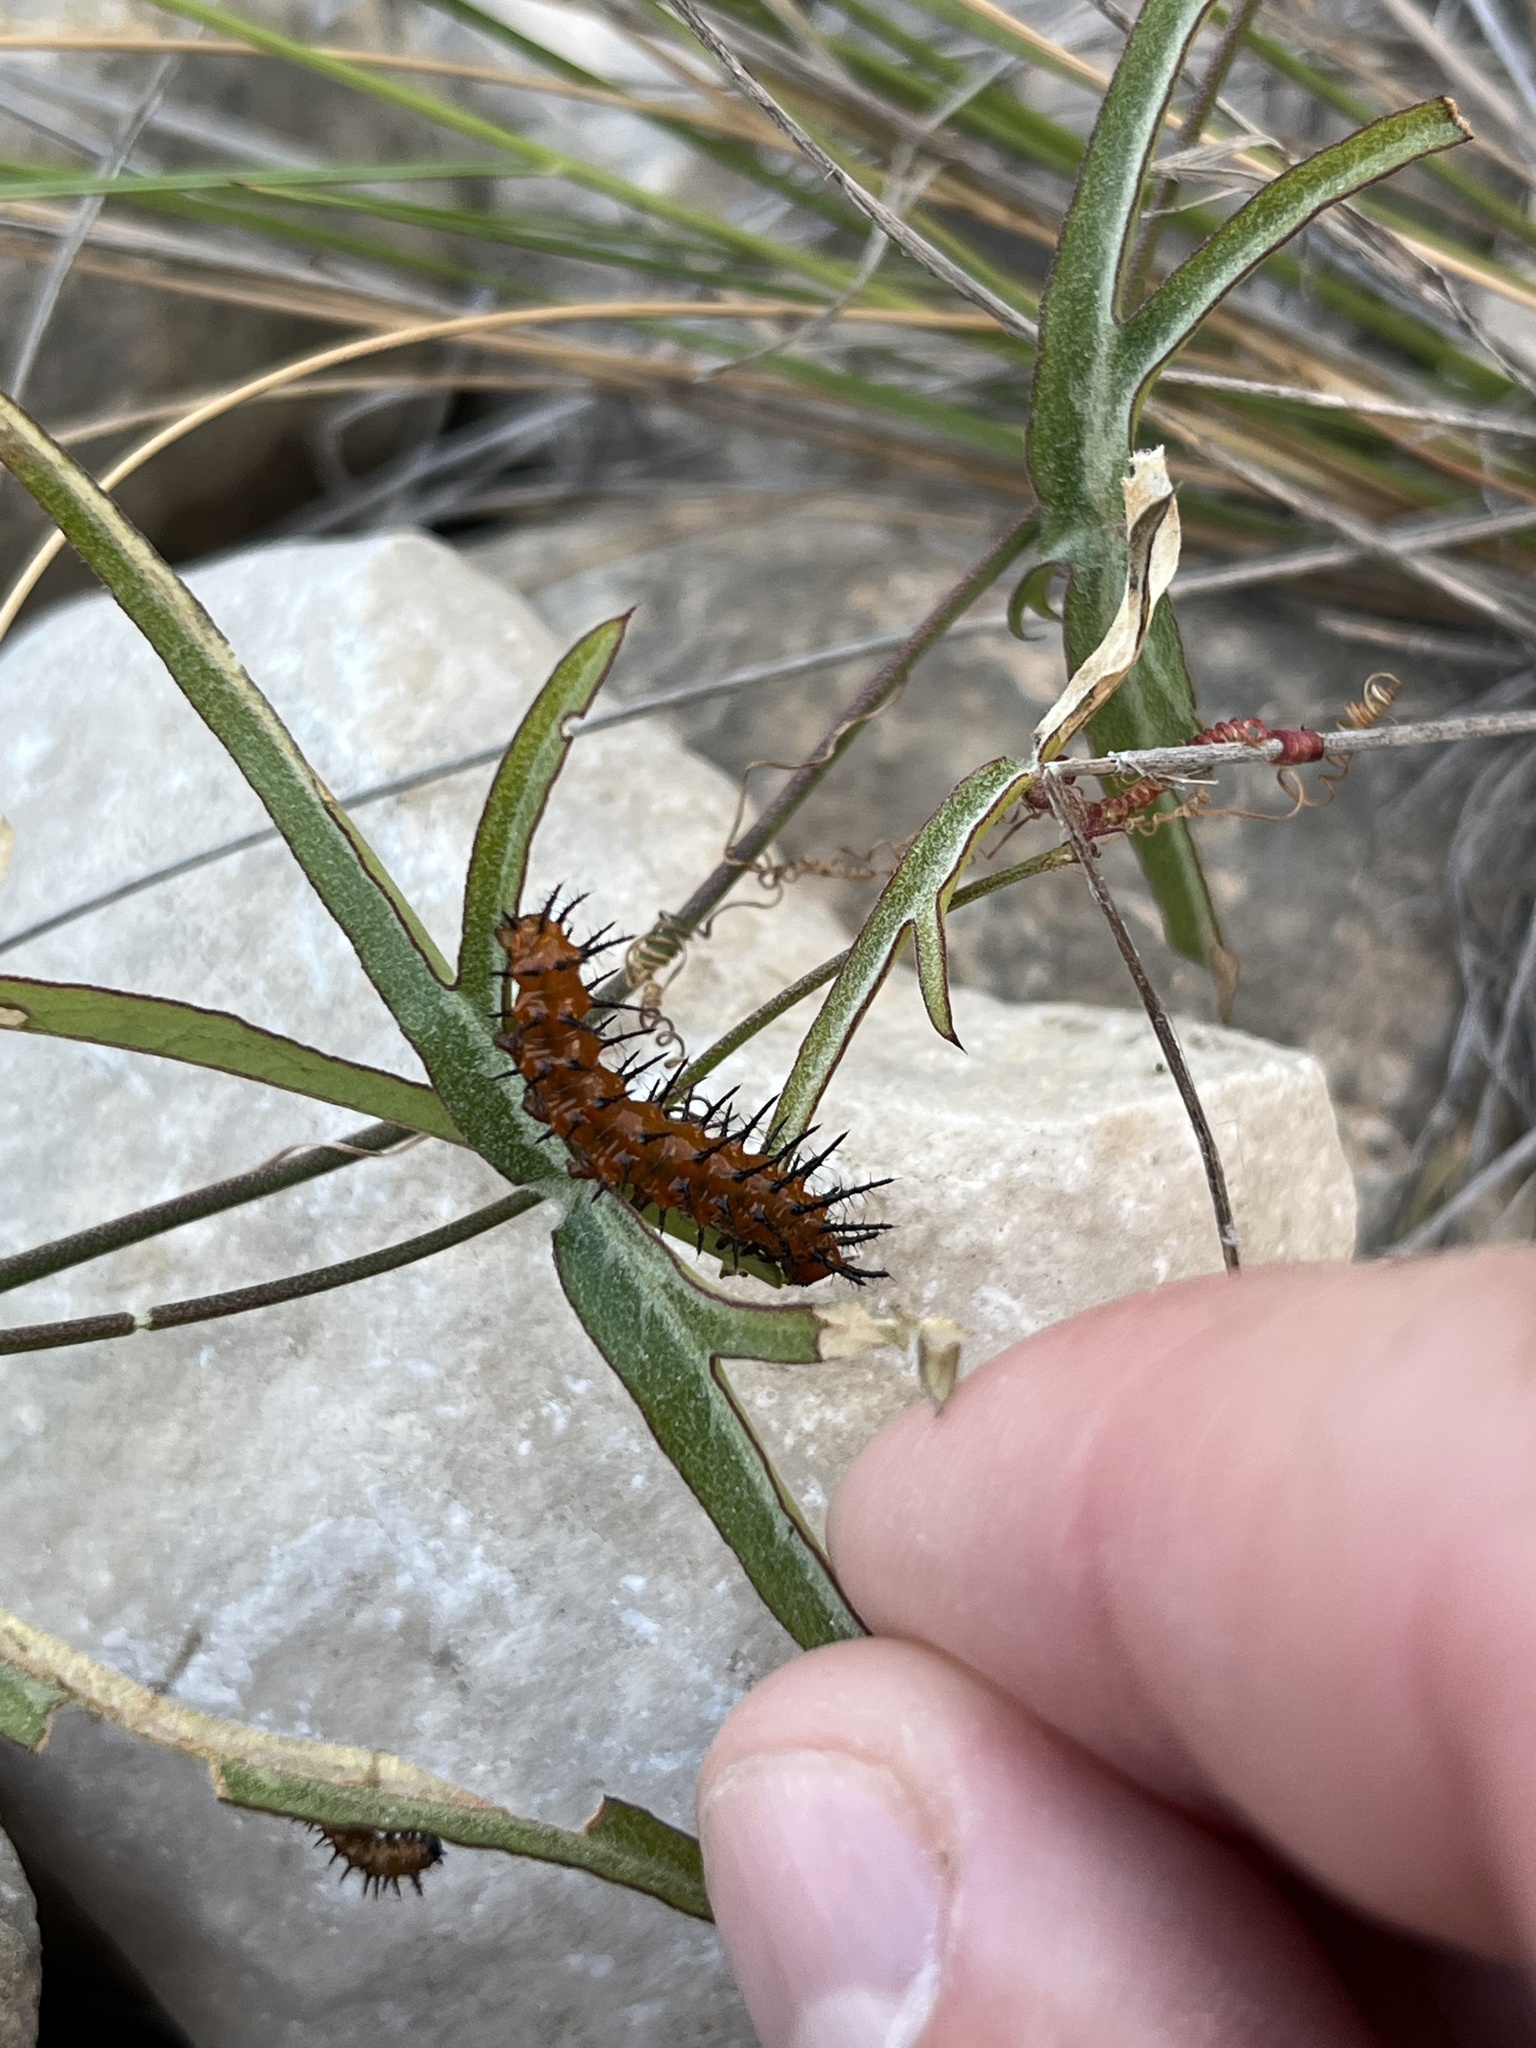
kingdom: Animalia
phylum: Arthropoda
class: Insecta
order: Lepidoptera
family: Nymphalidae
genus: Dione
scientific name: Dione vanillae
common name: Gulf fritillary
